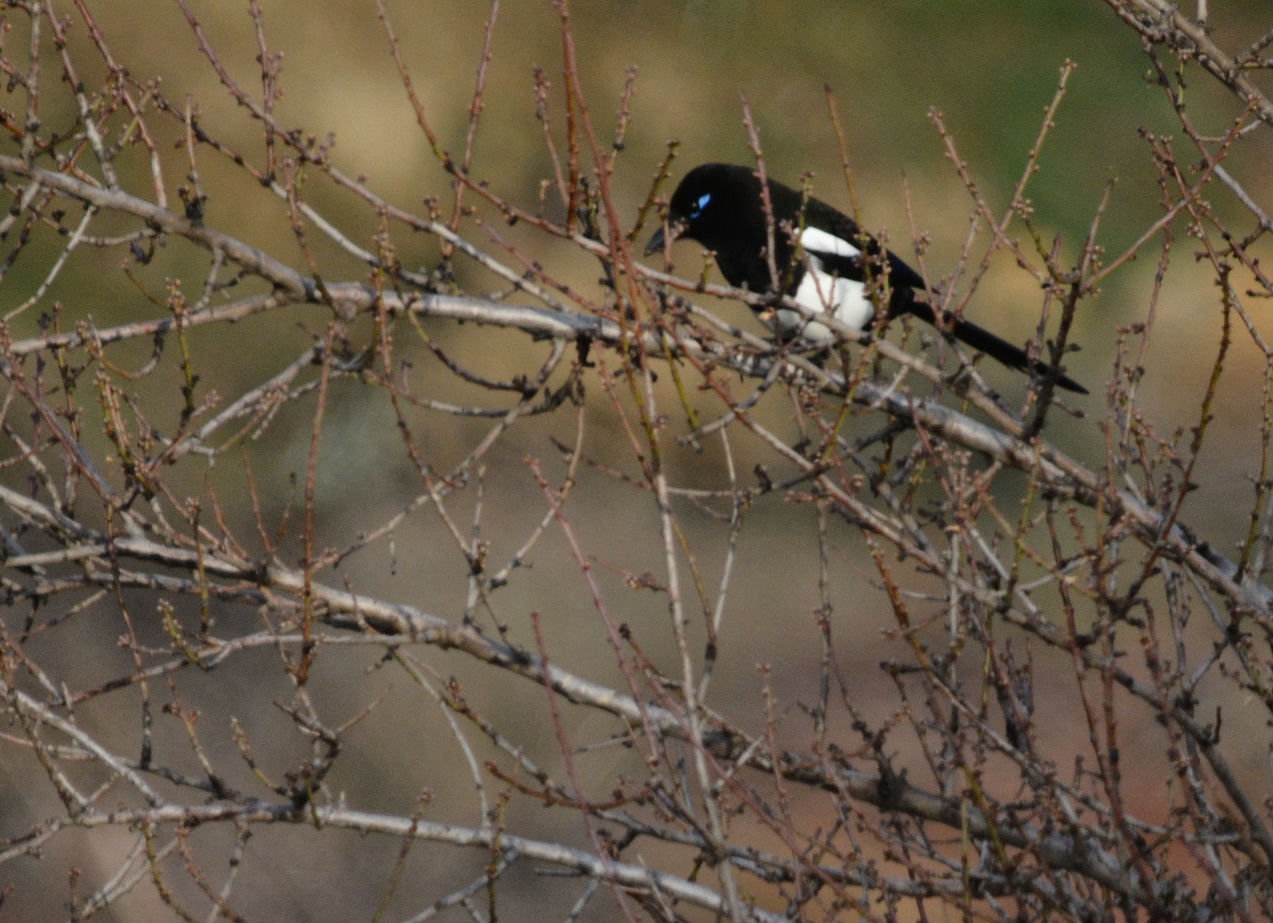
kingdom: Animalia
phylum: Chordata
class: Aves
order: Passeriformes
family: Corvidae
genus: Pica
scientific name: Pica mauritanica
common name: Maghreb magpie
